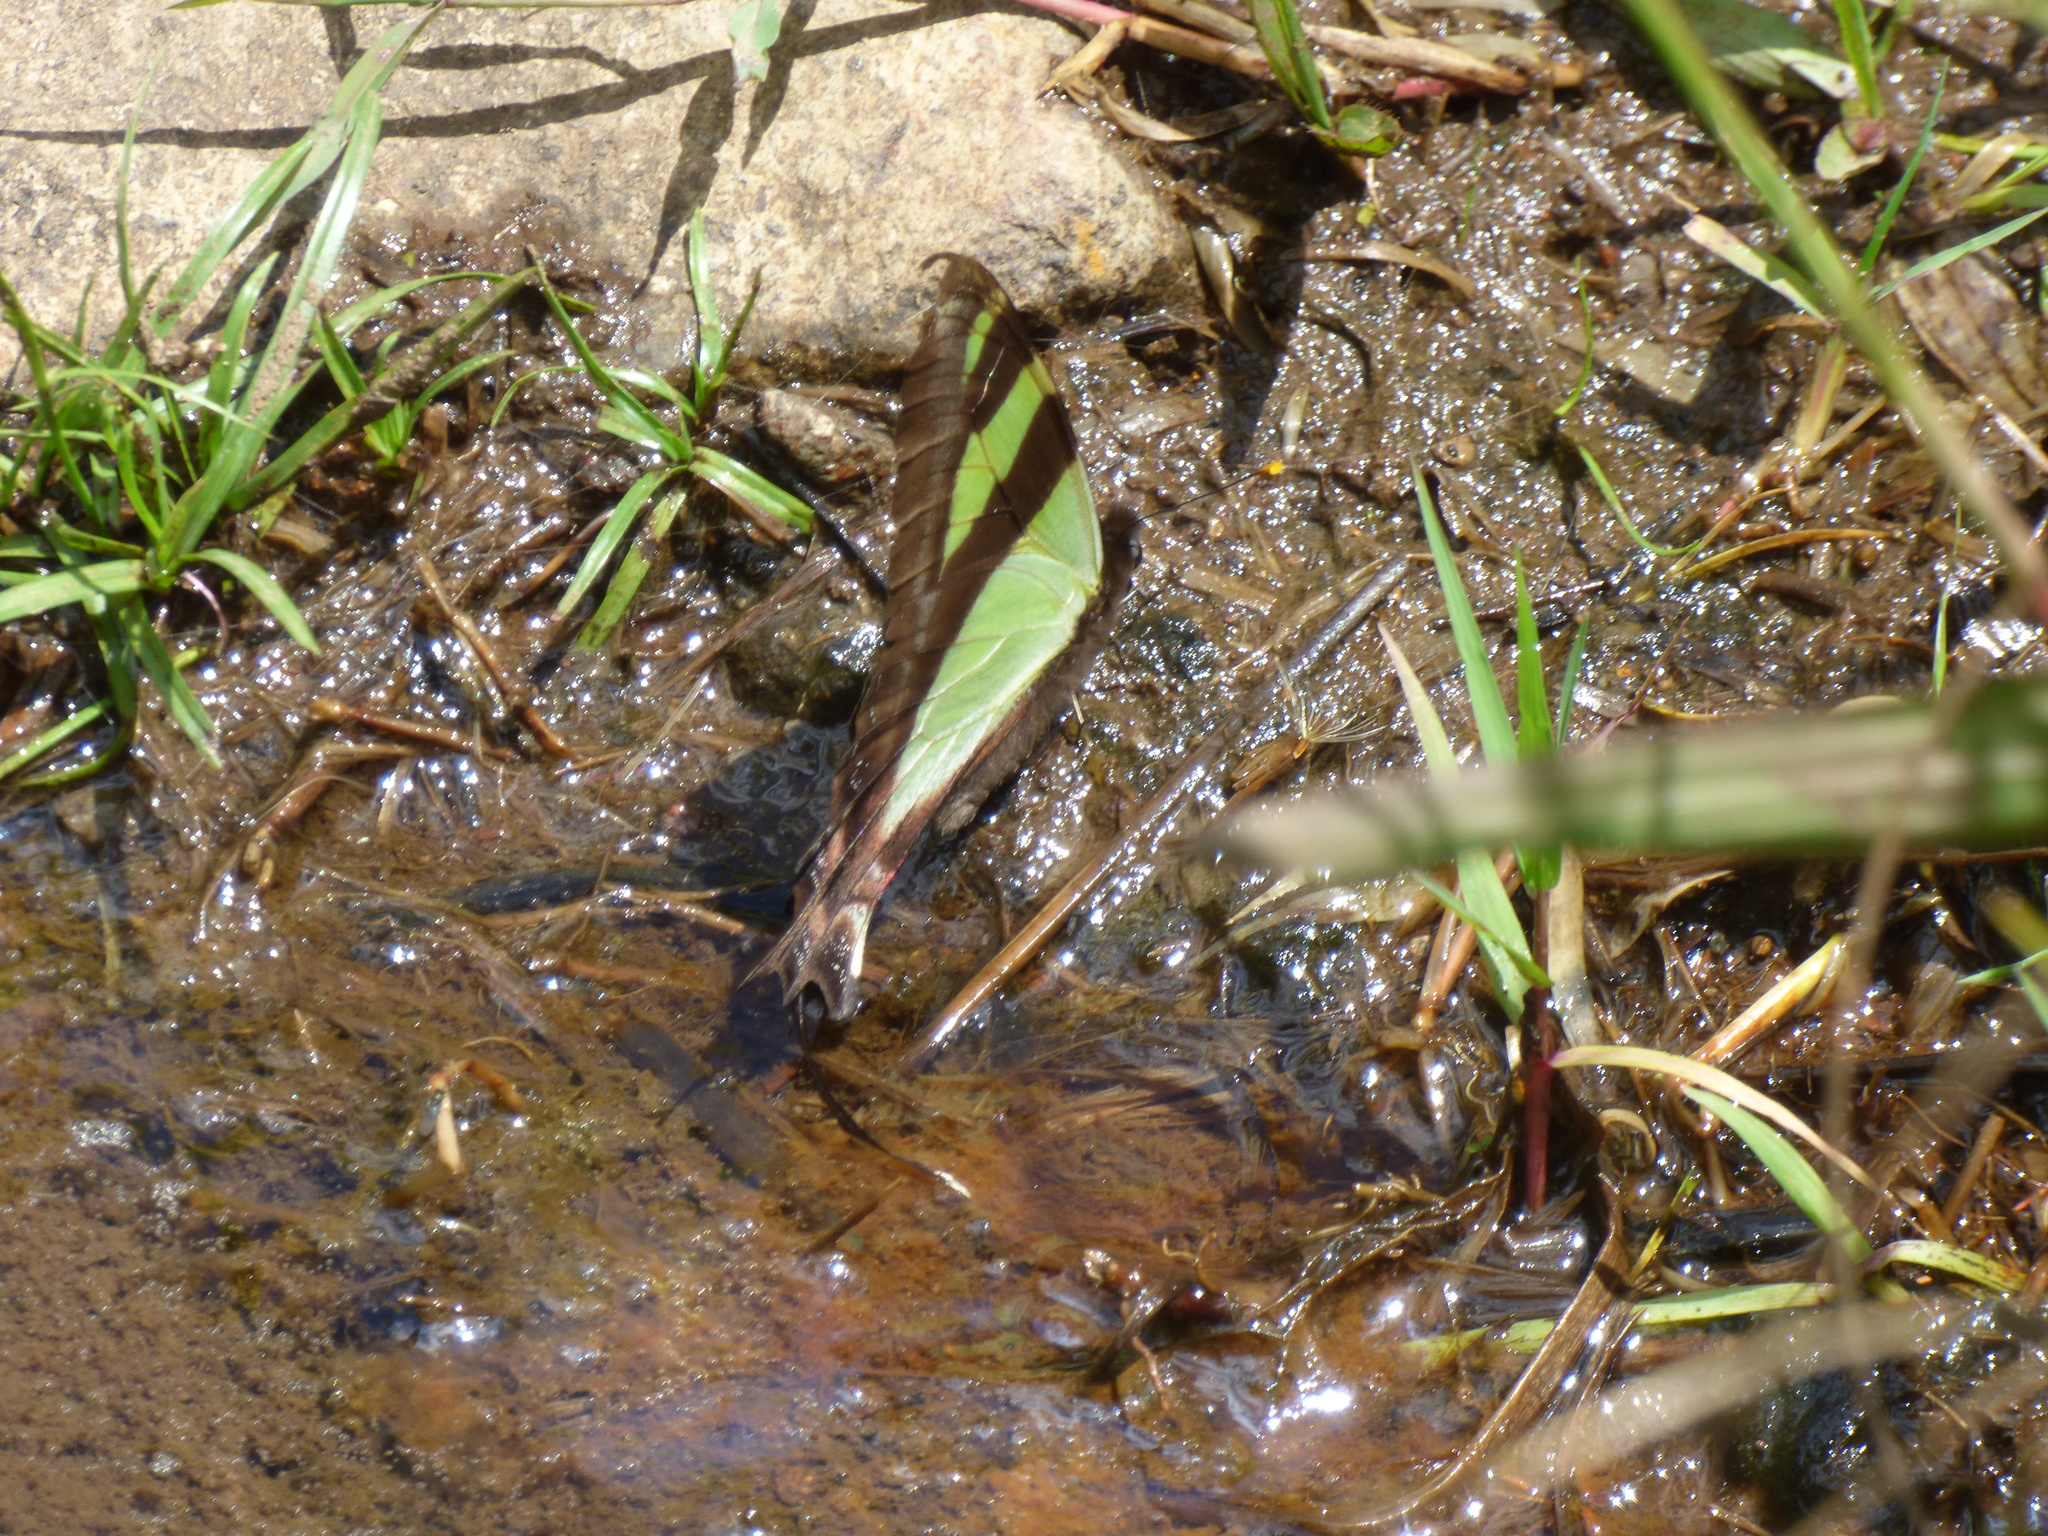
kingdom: Animalia
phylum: Arthropoda
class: Insecta
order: Lepidoptera
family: Papilionidae
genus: Eurytides
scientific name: Eurytides
